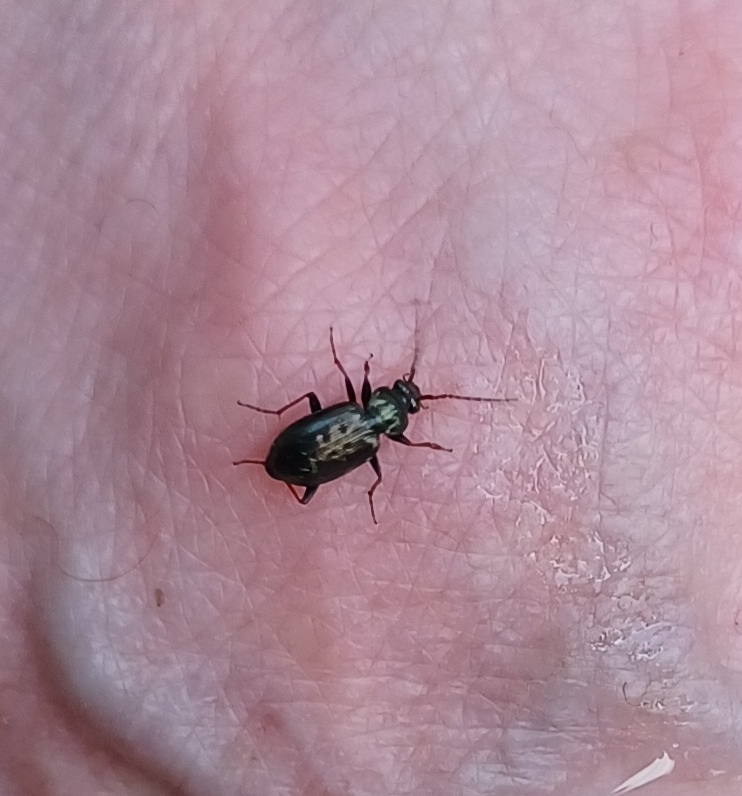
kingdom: Animalia
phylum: Arthropoda
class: Insecta
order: Coleoptera
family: Carabidae
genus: Loricera
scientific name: Loricera pilicornis
